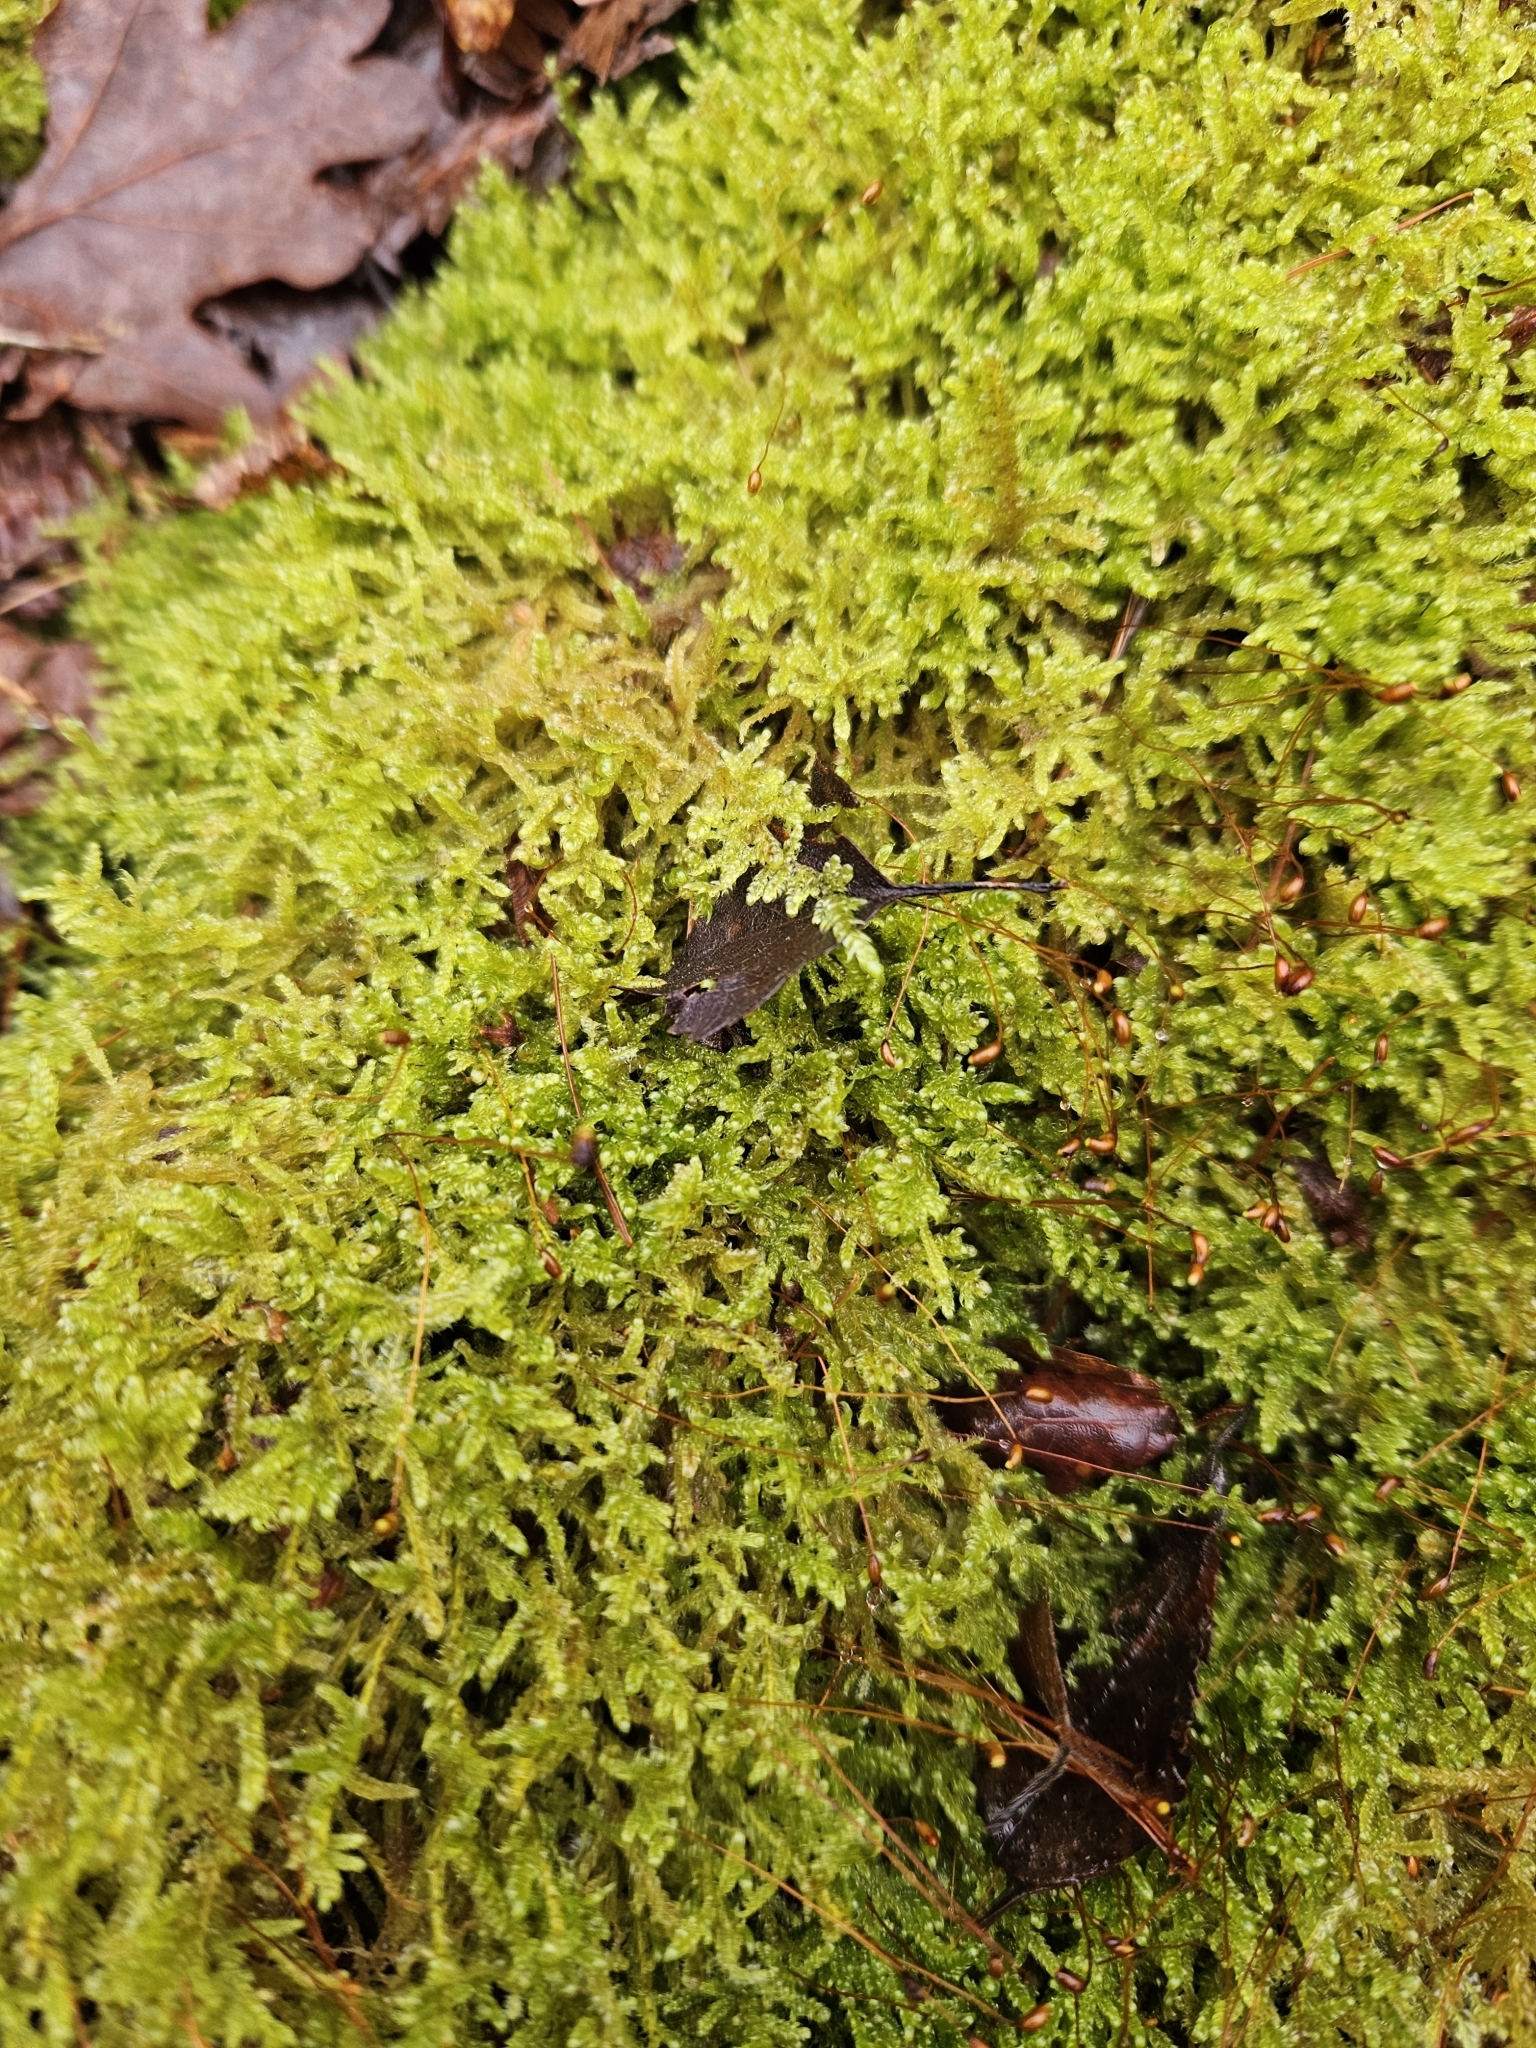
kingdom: Plantae
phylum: Bryophyta
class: Bryopsida
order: Hypnales
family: Hypnaceae
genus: Hypnum
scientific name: Hypnum jutlandicum
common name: Heath plait-moss
